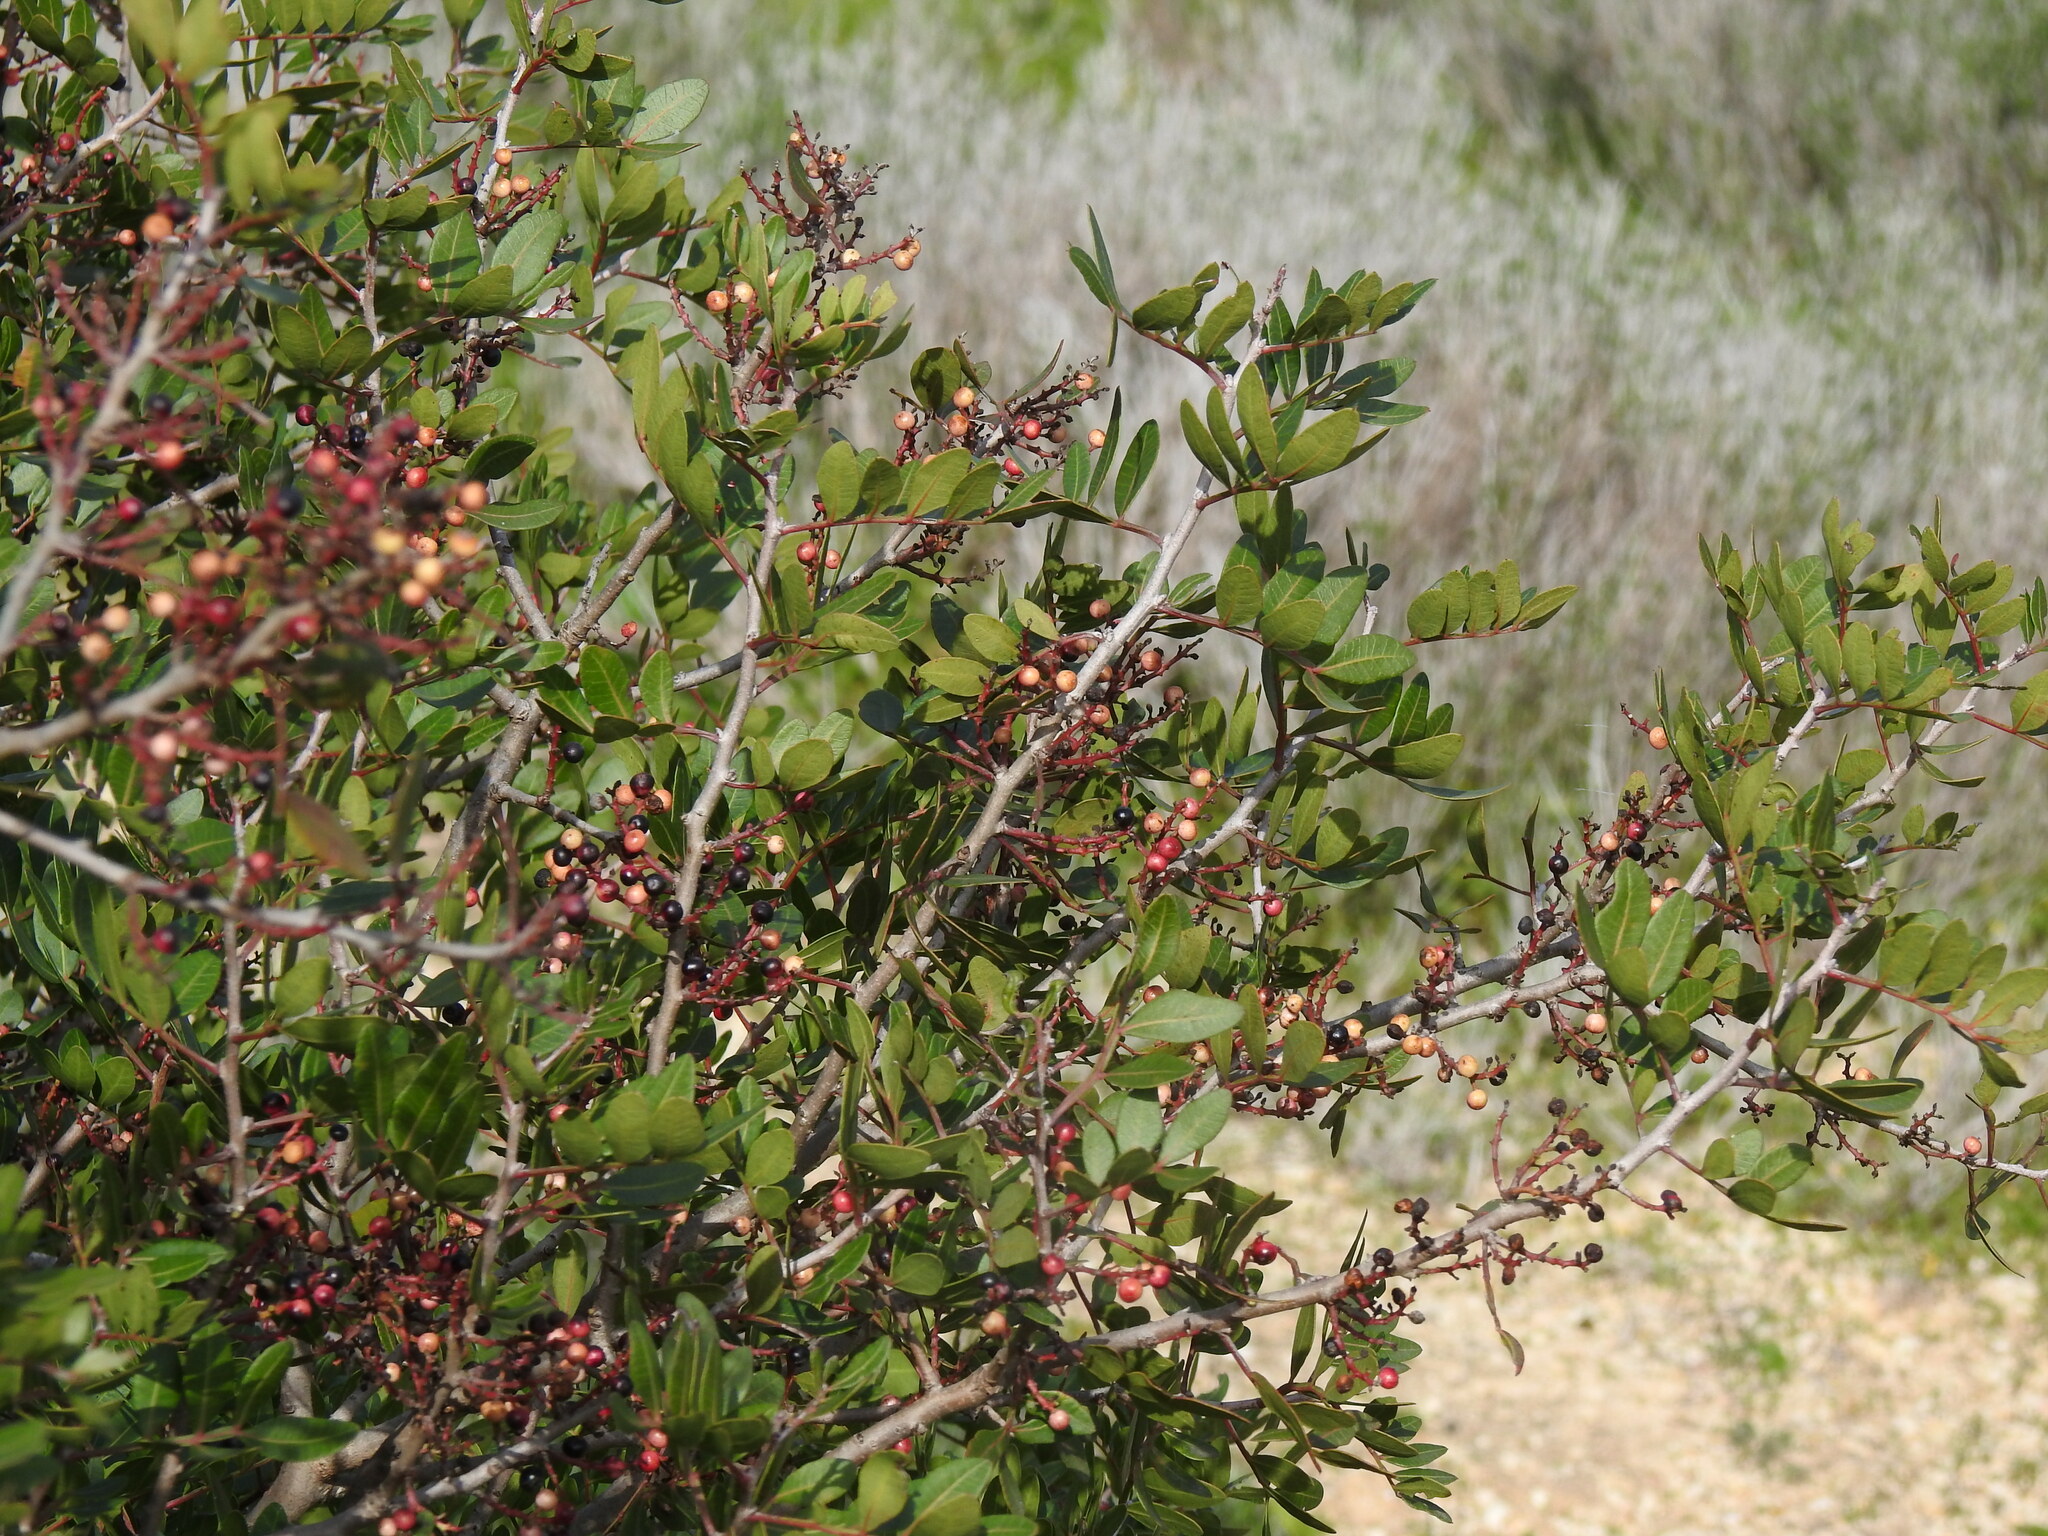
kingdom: Plantae
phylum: Tracheophyta
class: Magnoliopsida
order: Sapindales
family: Anacardiaceae
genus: Pistacia
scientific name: Pistacia lentiscus
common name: Lentisk
